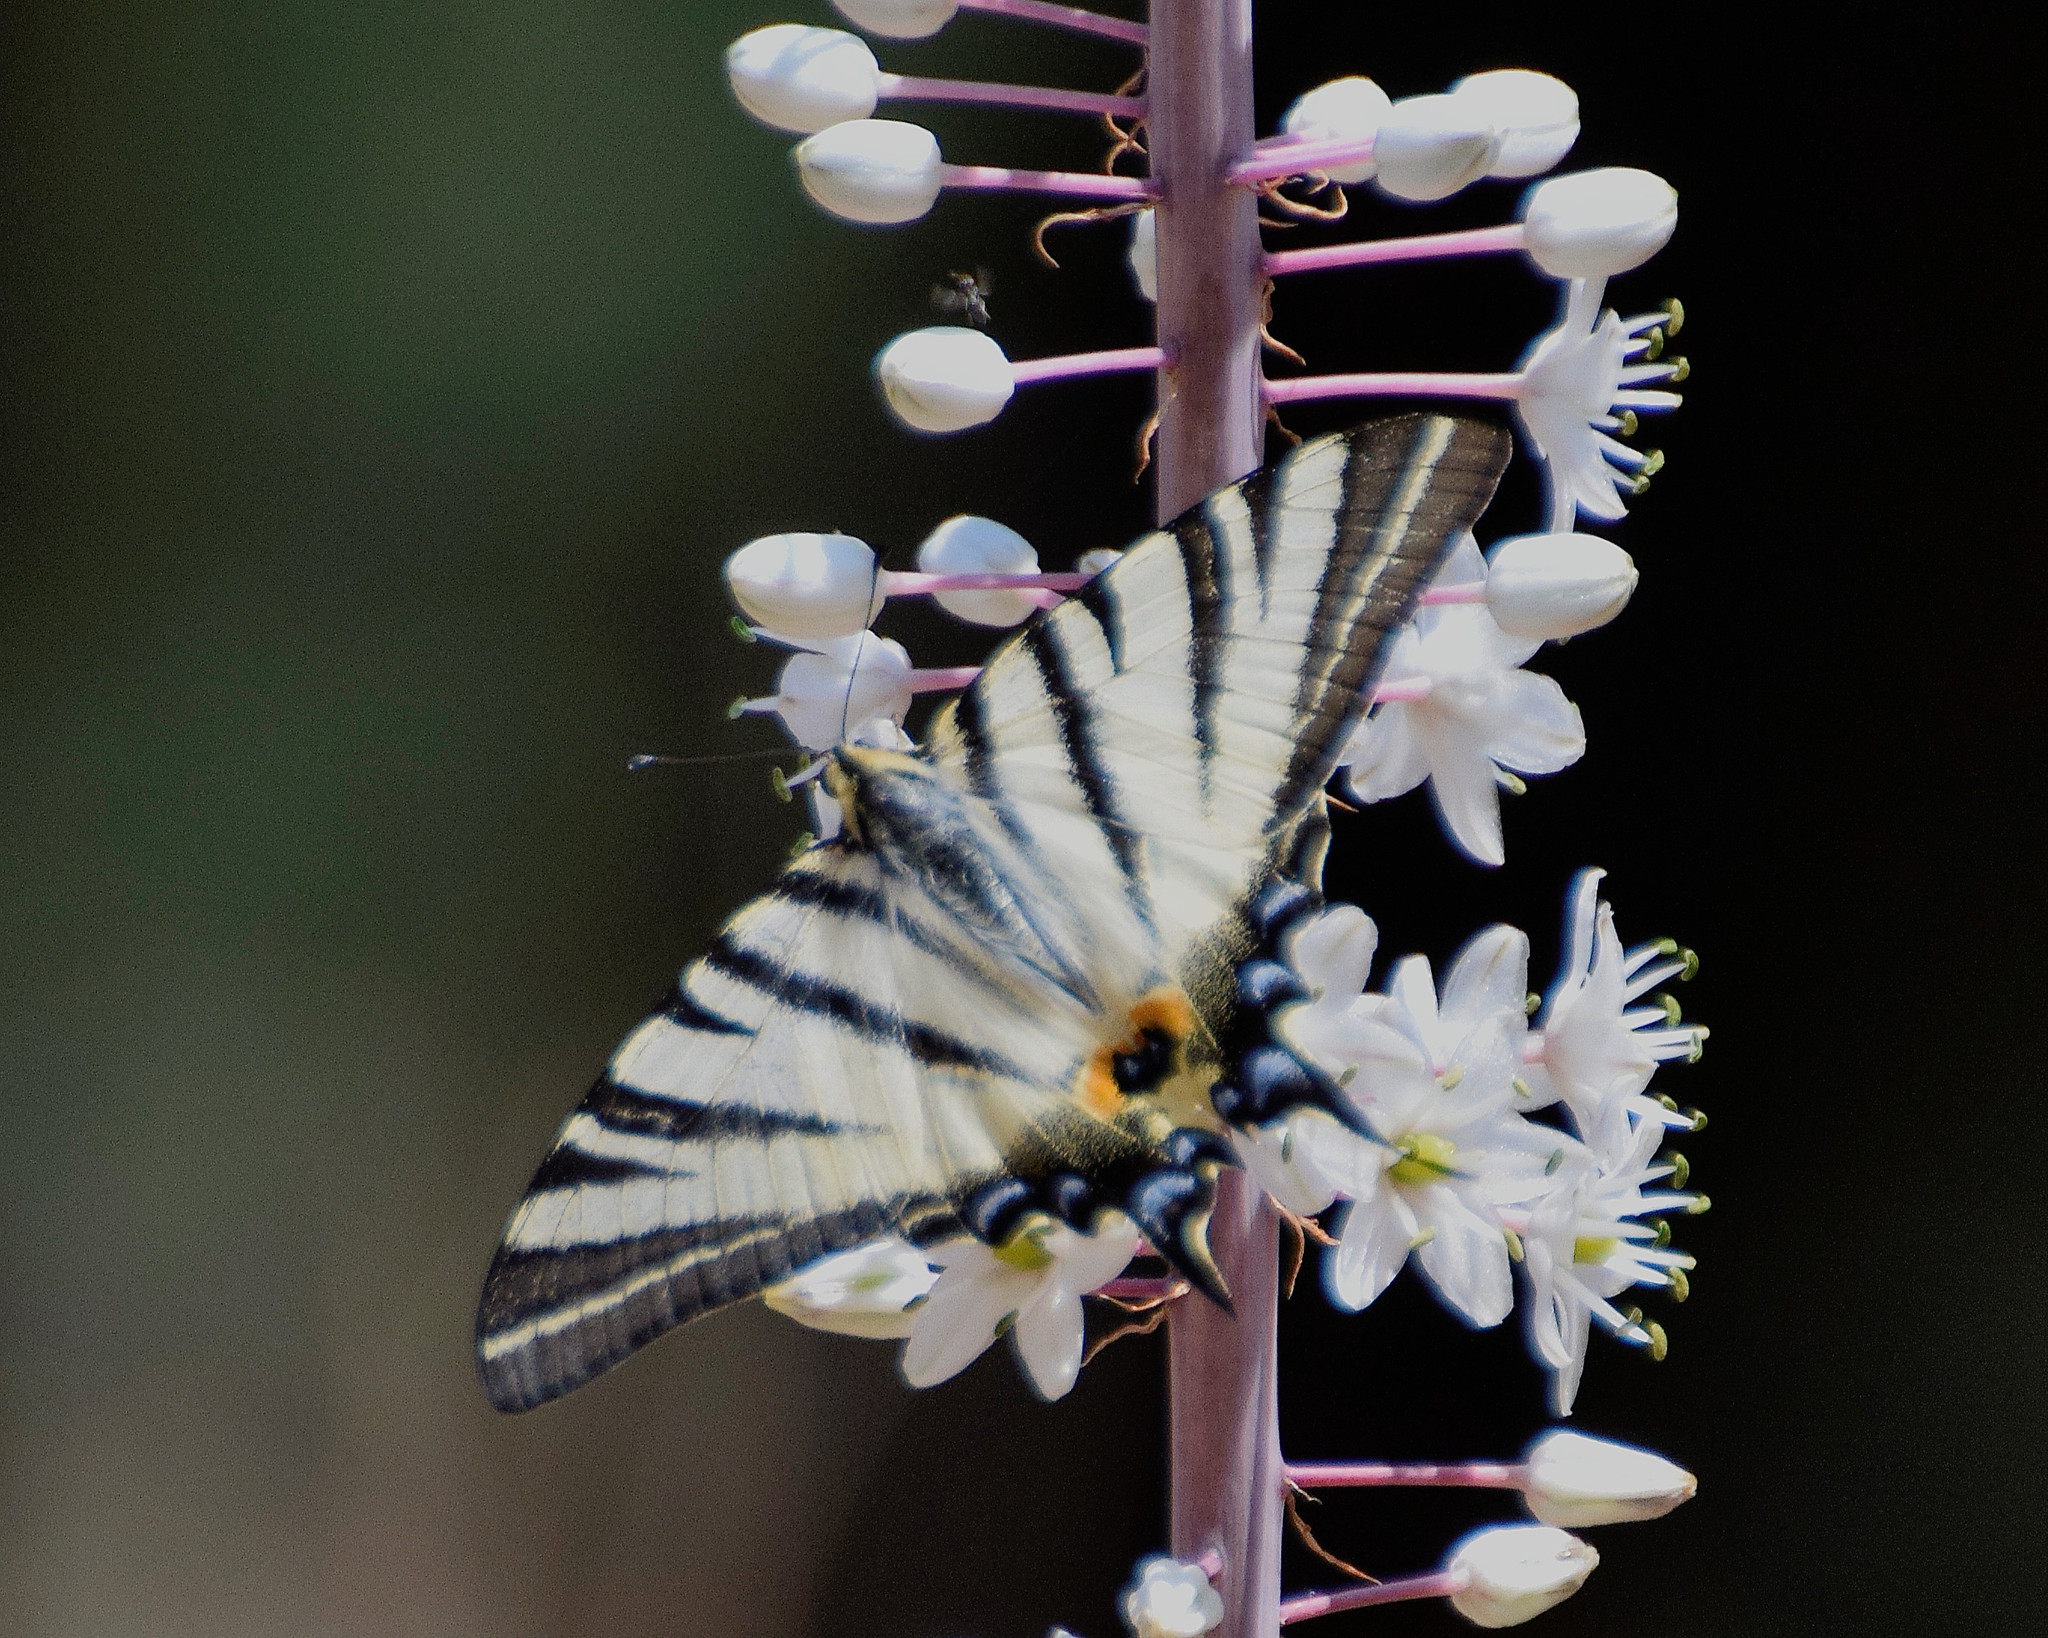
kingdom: Animalia
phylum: Arthropoda
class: Insecta
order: Lepidoptera
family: Papilionidae
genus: Iphiclides
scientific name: Iphiclides podalirius
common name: Scarce swallowtail
